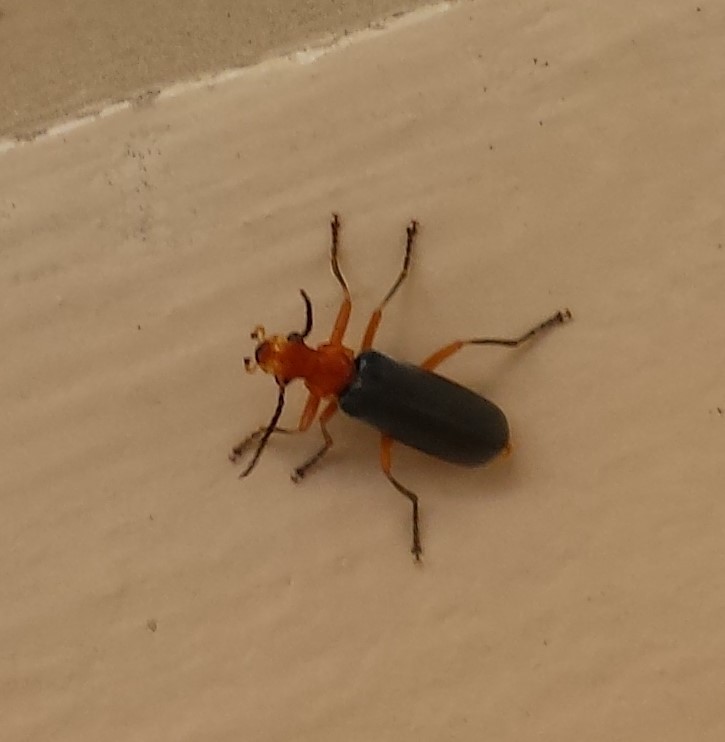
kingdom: Animalia
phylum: Arthropoda
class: Insecta
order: Coleoptera
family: Cantharidae
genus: Podabrus
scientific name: Podabrus tomentosus
